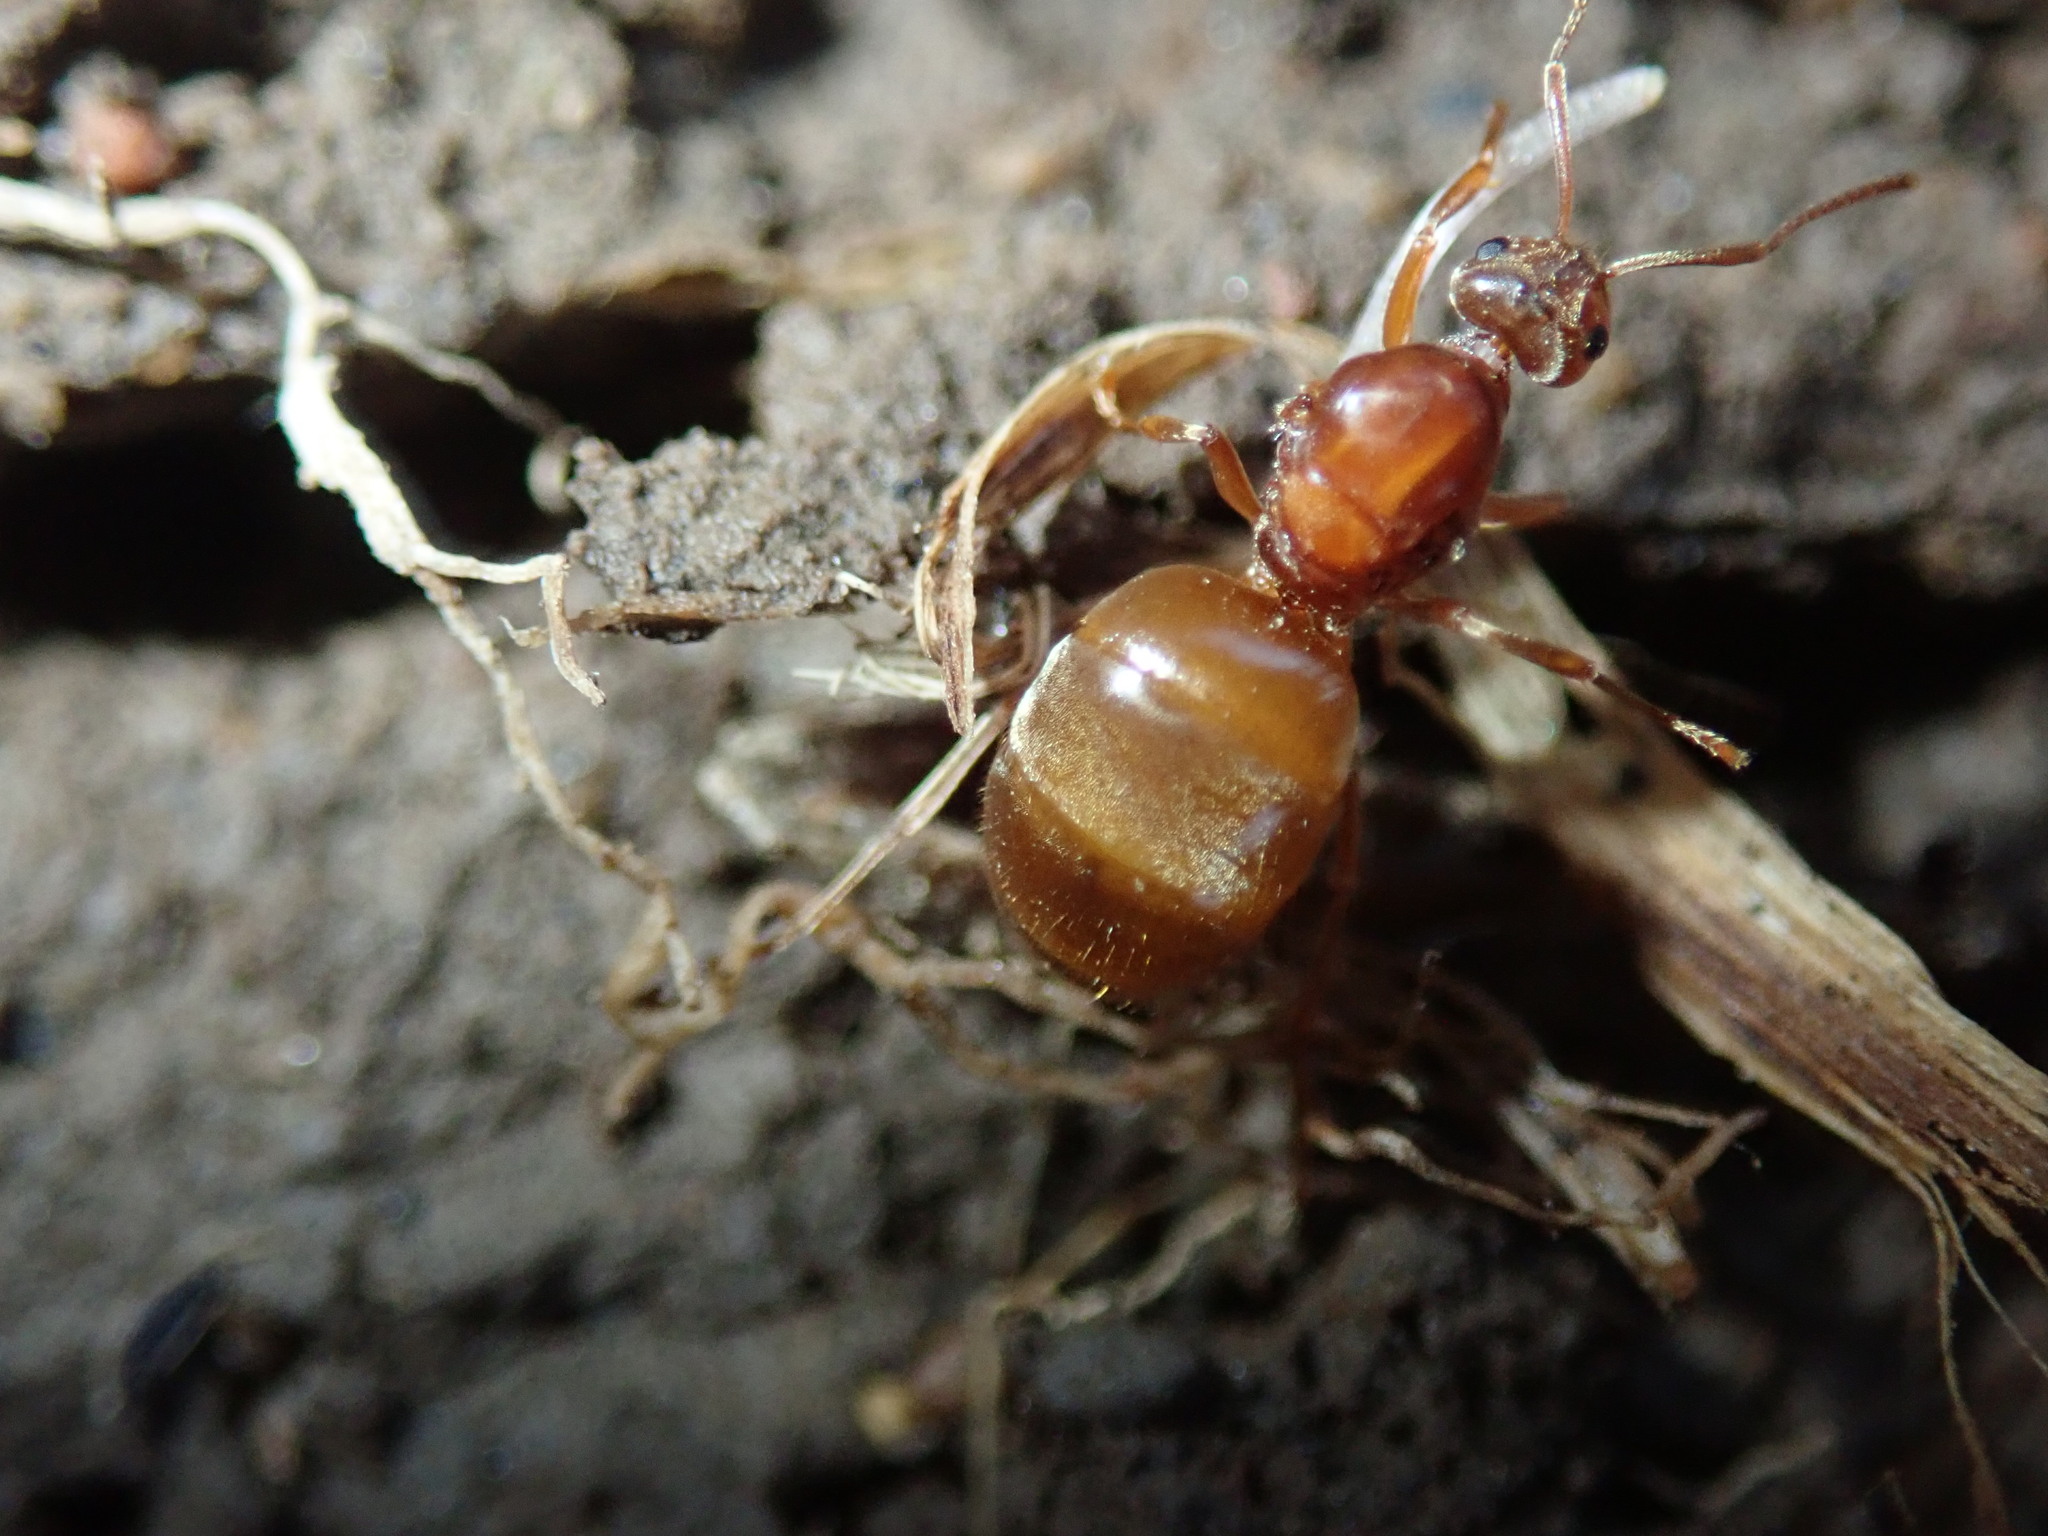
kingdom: Animalia
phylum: Arthropoda
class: Insecta
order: Hymenoptera
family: Formicidae
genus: Prenolepis
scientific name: Prenolepis imparis
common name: Small honey ant
